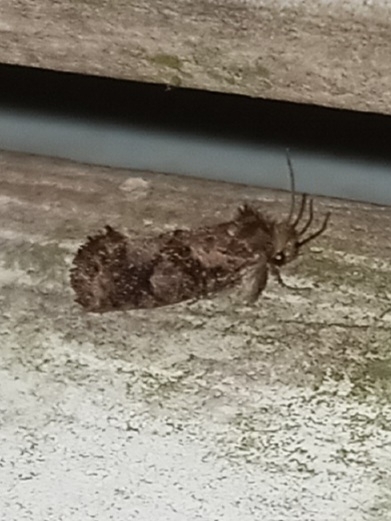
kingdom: Animalia
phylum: Arthropoda
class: Insecta
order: Lepidoptera
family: Tineidae
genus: Acrolophus
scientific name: Acrolophus panamae
